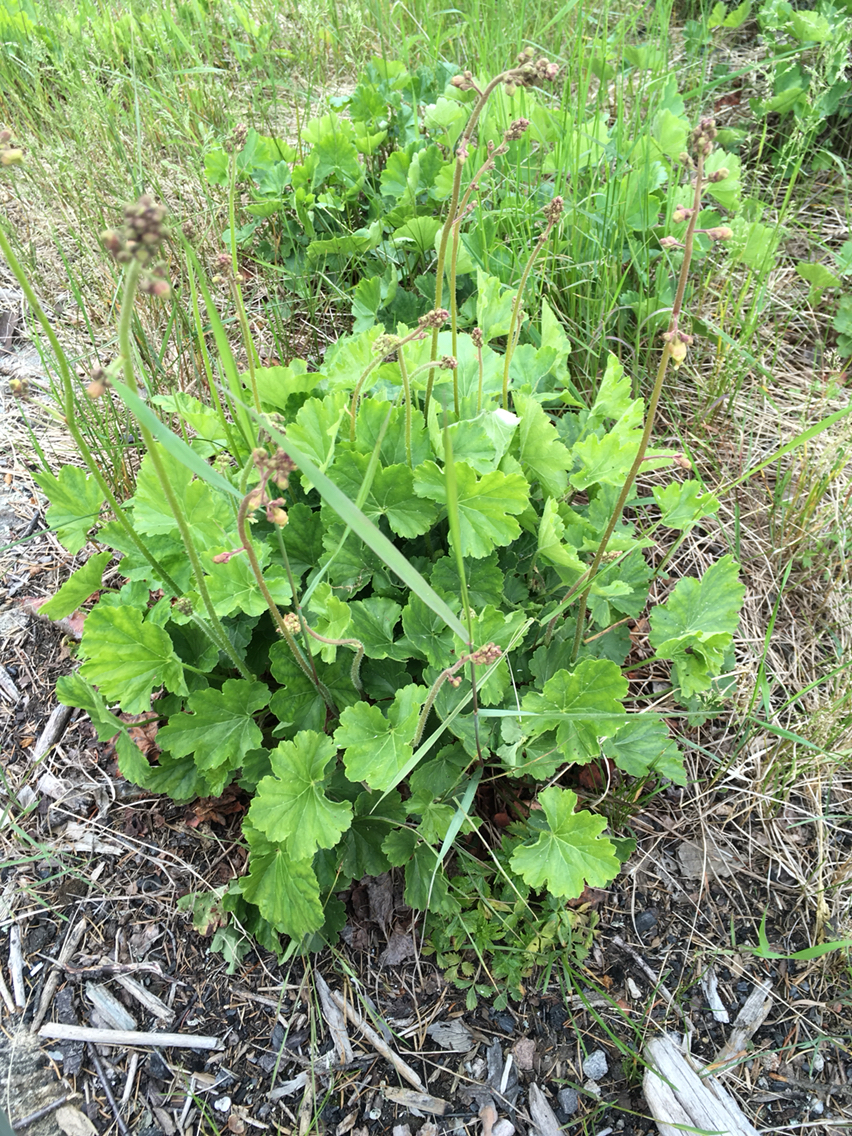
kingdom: Plantae
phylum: Tracheophyta
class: Magnoliopsida
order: Saxifragales
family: Saxifragaceae
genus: Heuchera
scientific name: Heuchera richardsonii
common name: Richardson's alumroot
